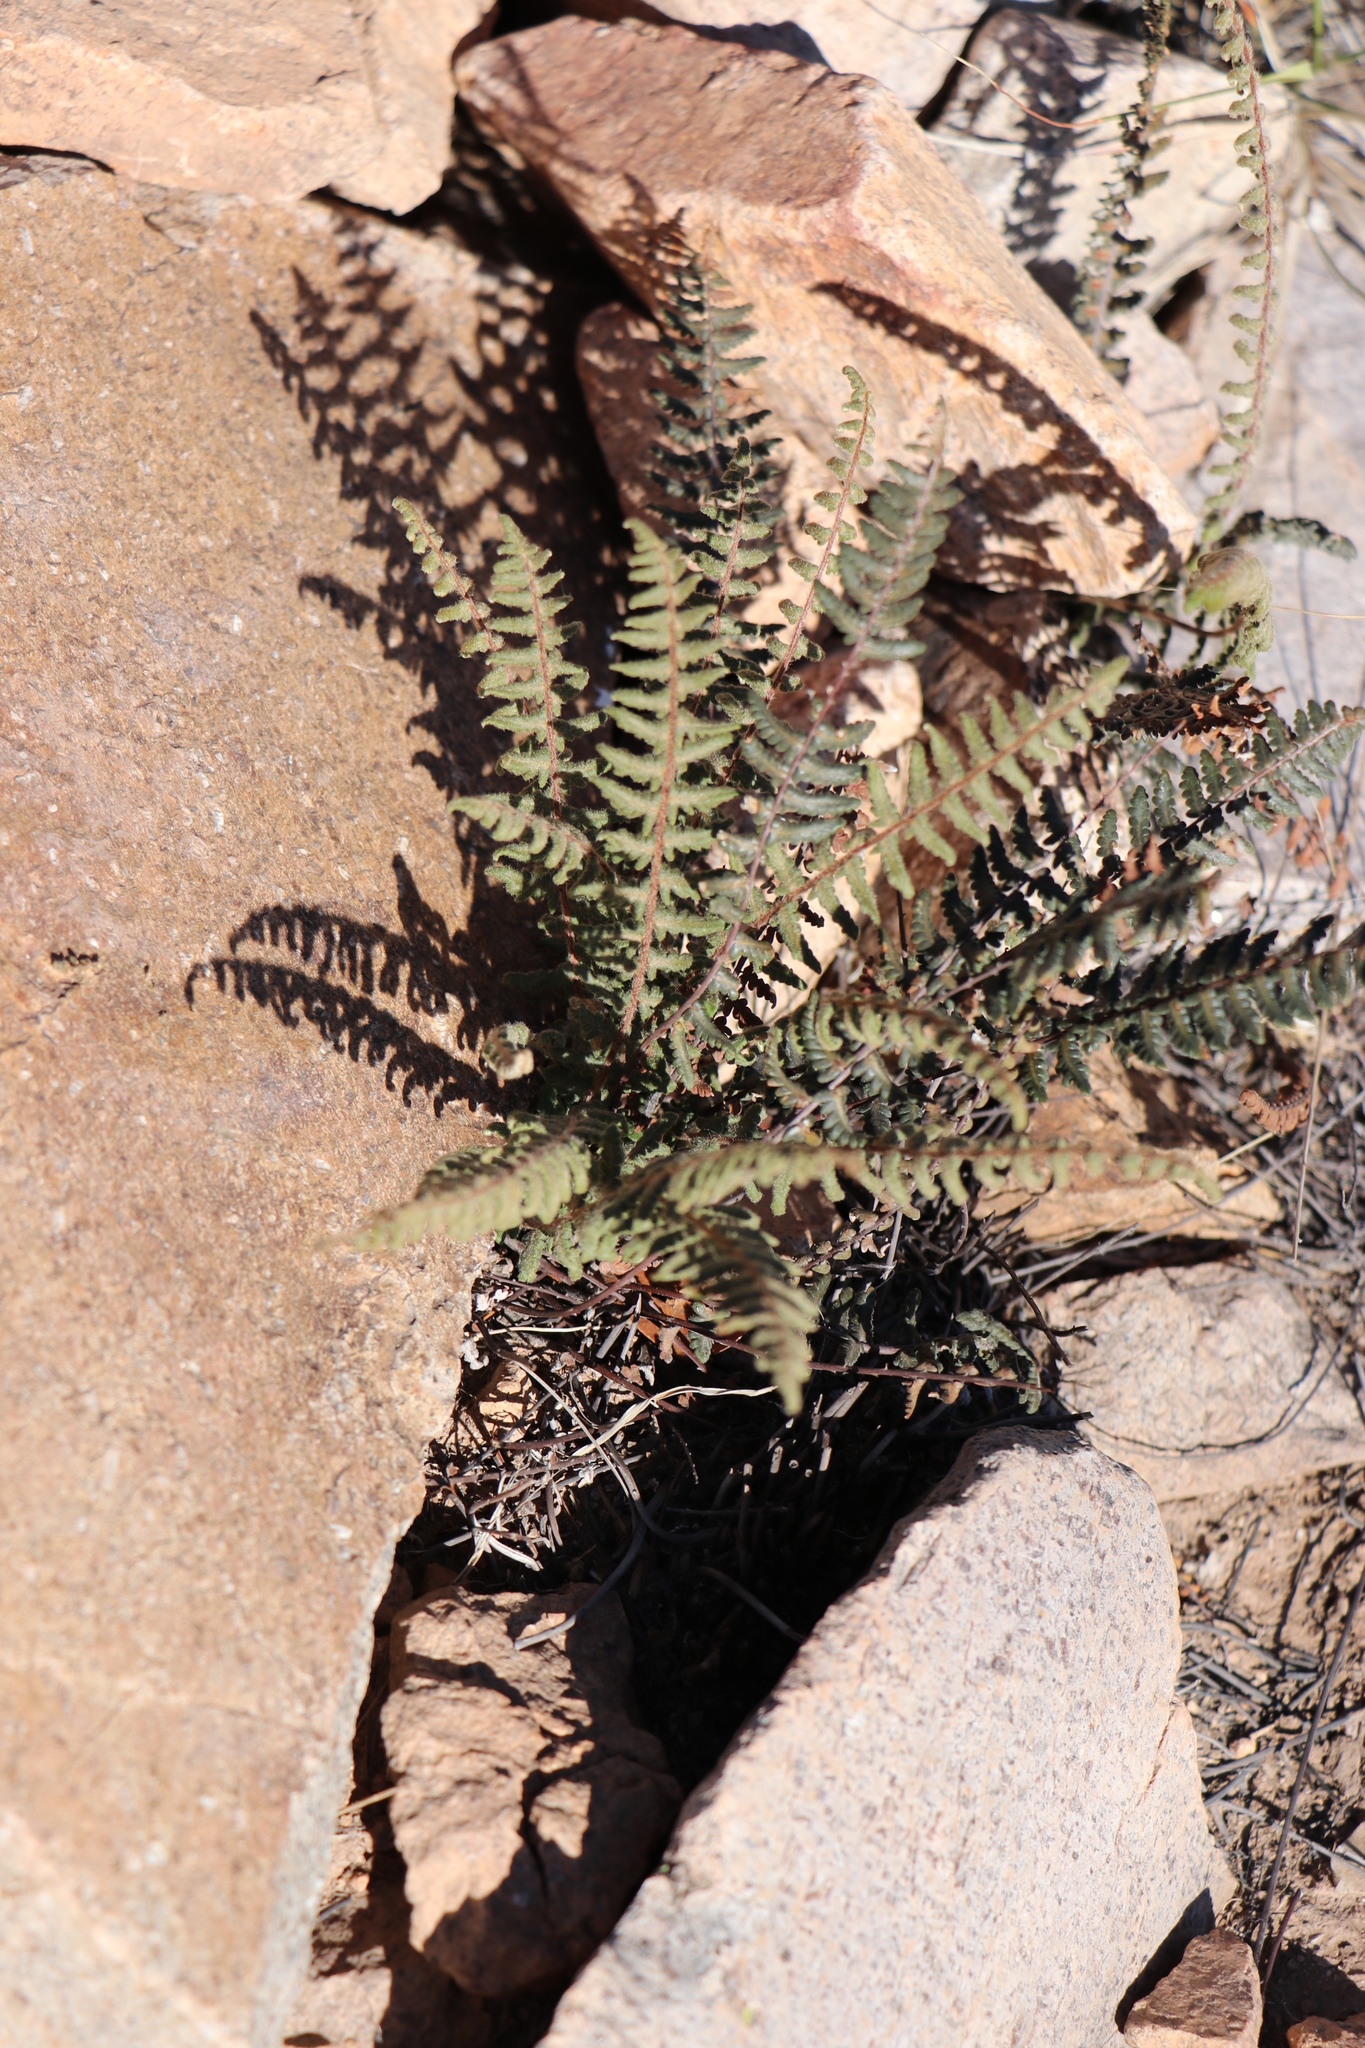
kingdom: Plantae
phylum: Tracheophyta
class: Polypodiopsida
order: Polypodiales
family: Pteridaceae
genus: Myriopteris
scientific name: Myriopteris aurea
